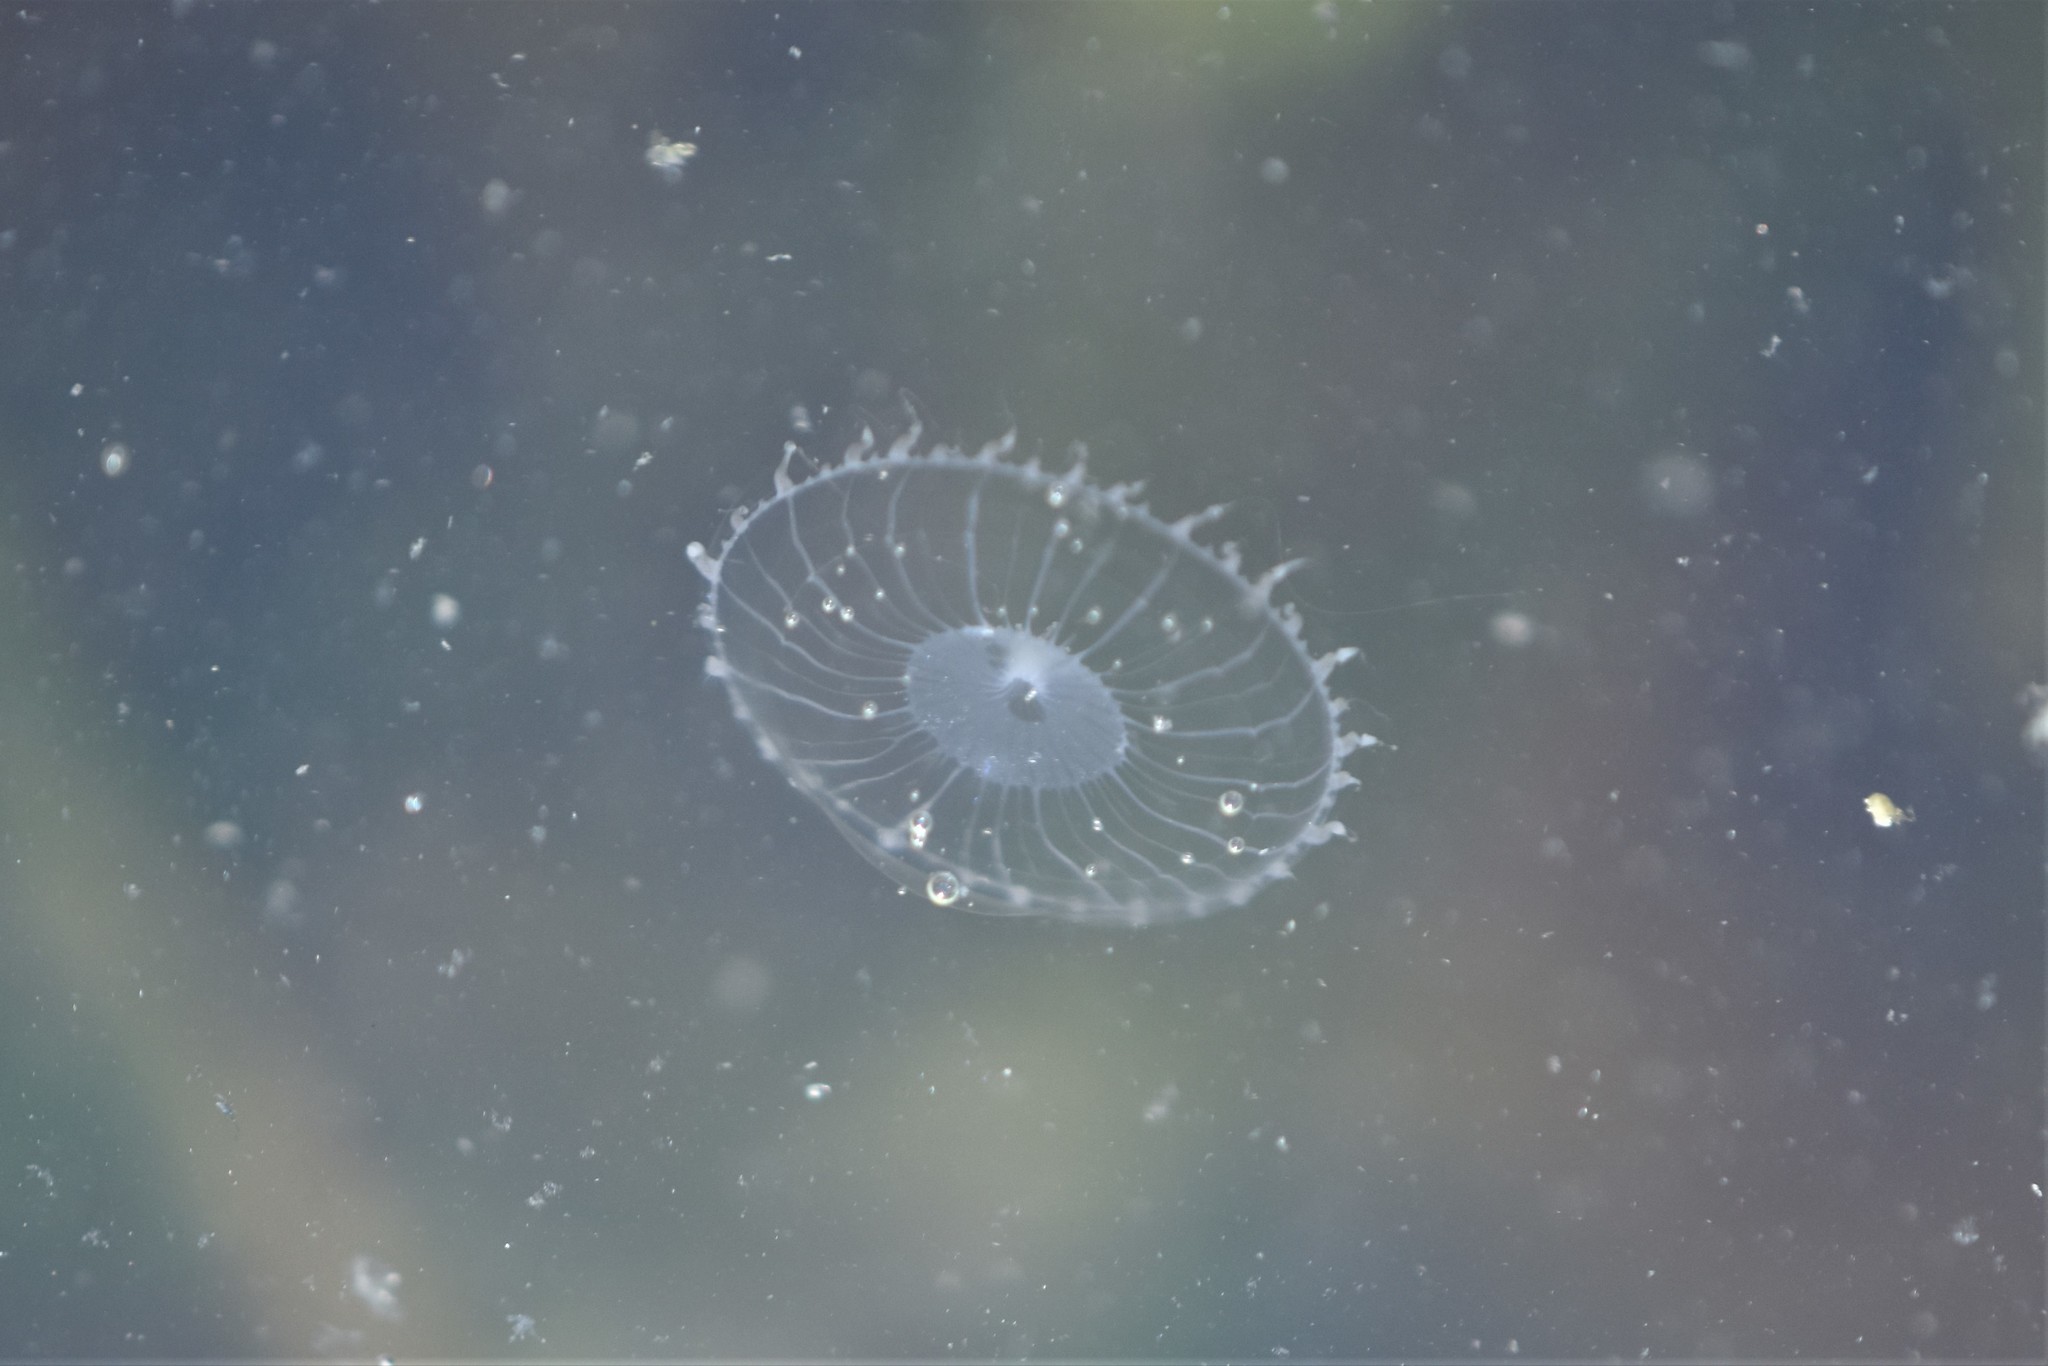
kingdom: Animalia
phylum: Cnidaria
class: Hydrozoa
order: Leptothecata
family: Aequoreidae
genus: Aequorea
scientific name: Aequorea victoria
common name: Water jellyfish
